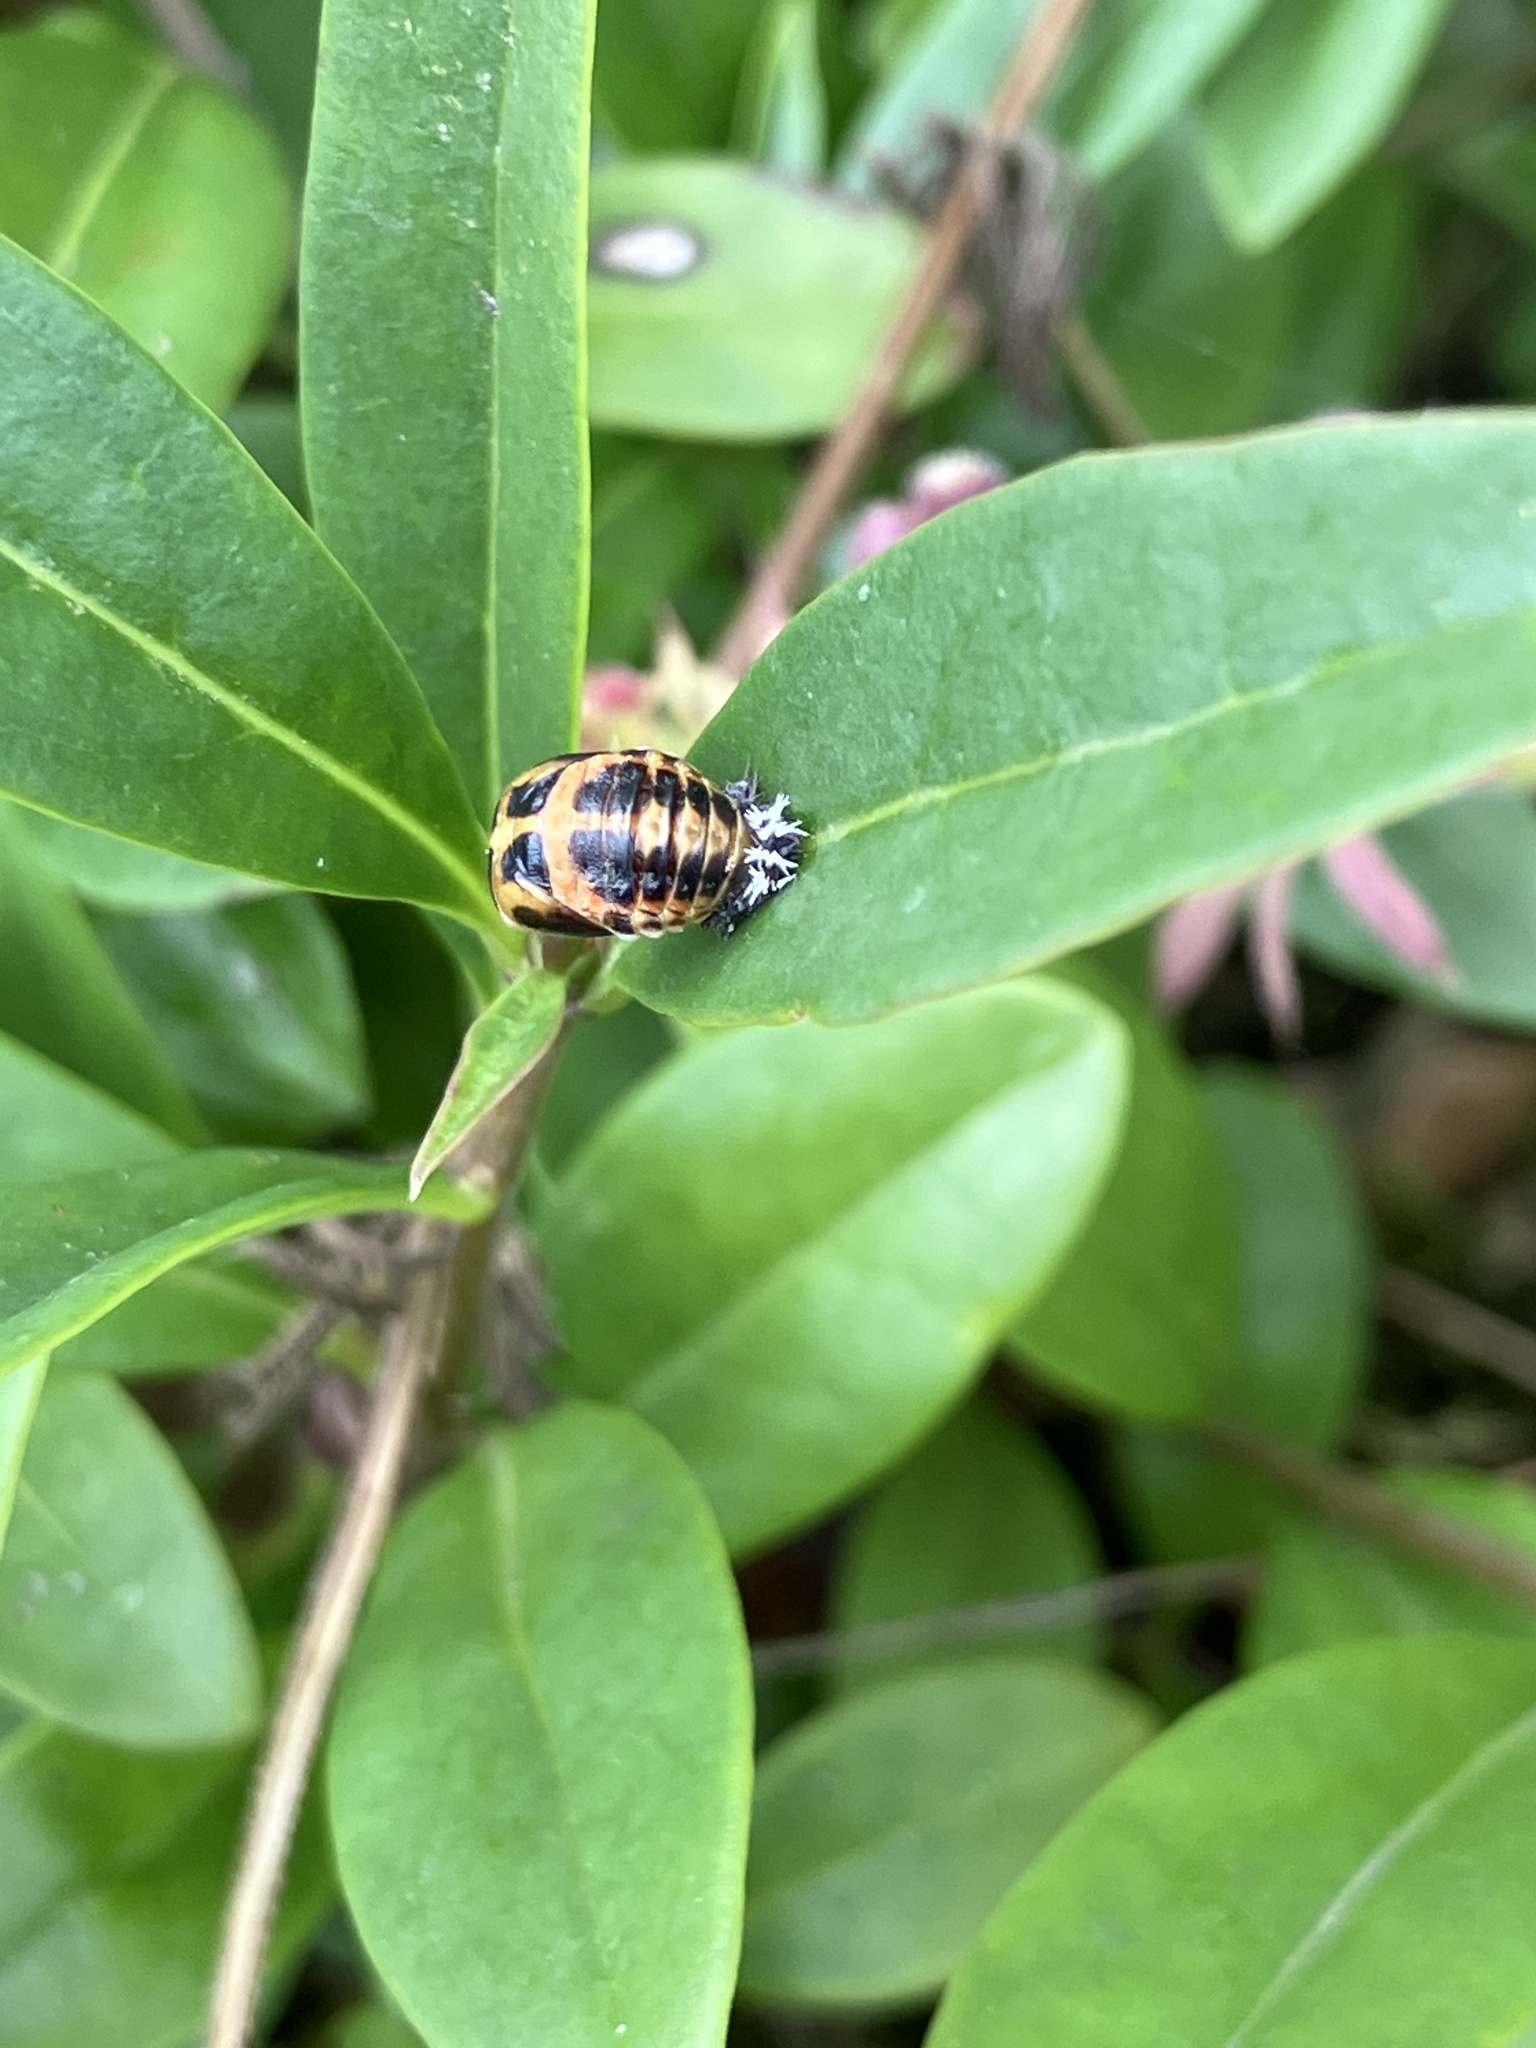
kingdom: Animalia
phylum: Arthropoda
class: Insecta
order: Coleoptera
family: Coccinellidae
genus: Harmonia
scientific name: Harmonia axyridis
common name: Harlequin ladybird
